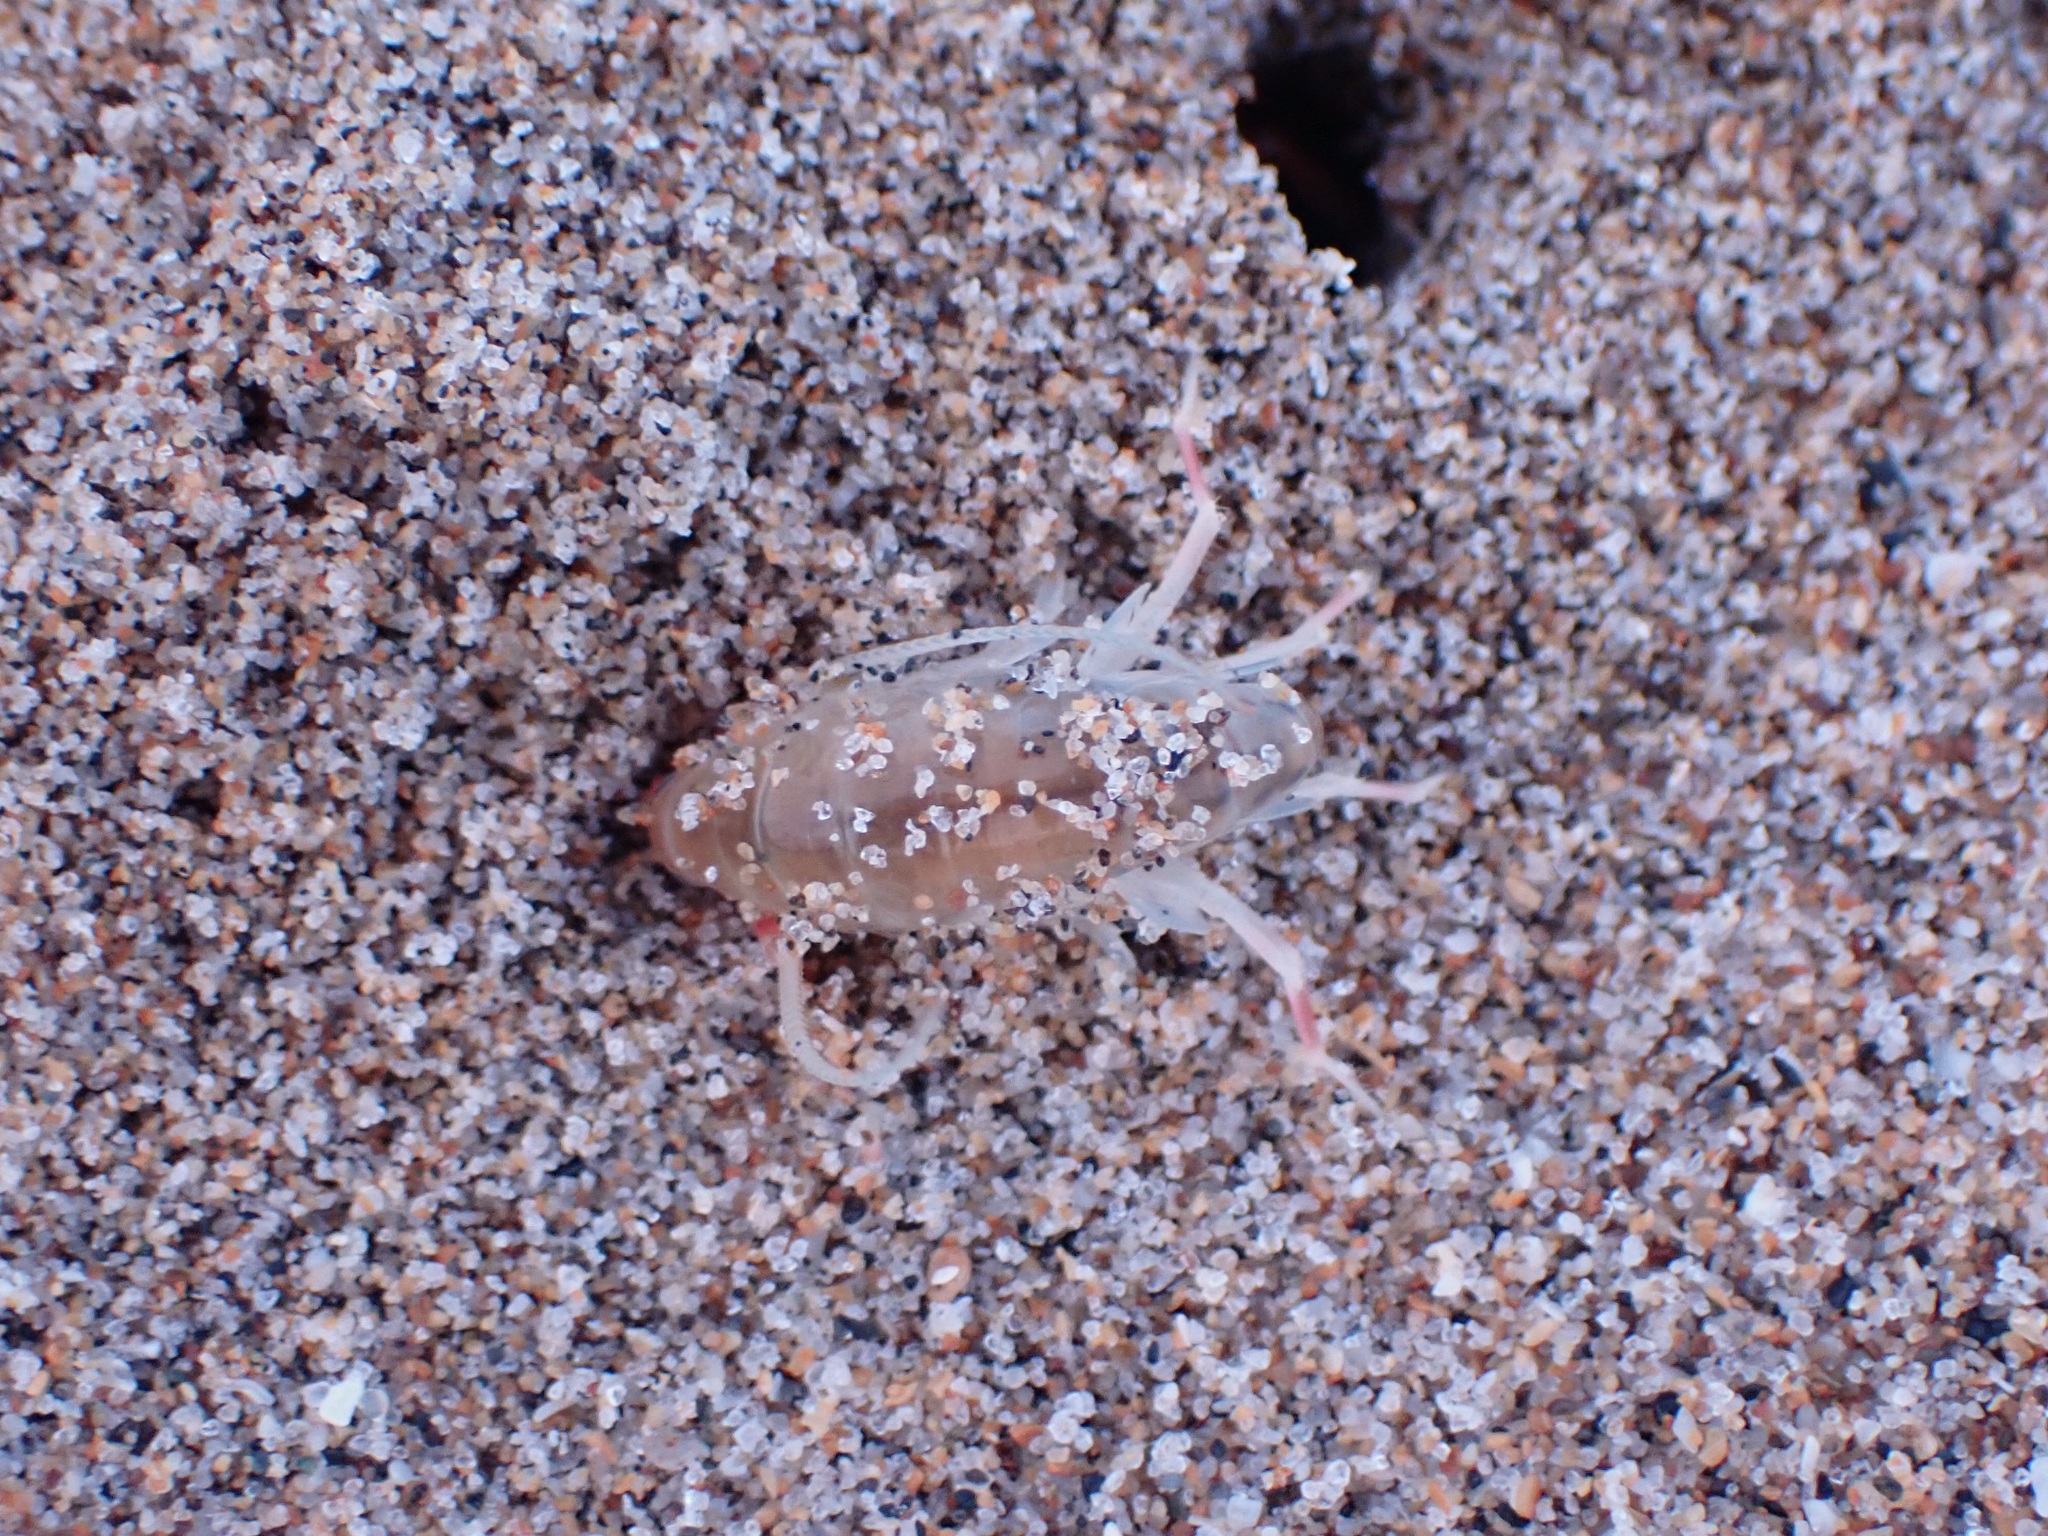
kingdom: Animalia
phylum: Arthropoda
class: Malacostraca
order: Amphipoda
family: Talitridae
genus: Megalorchestia
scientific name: Megalorchestia californiana
